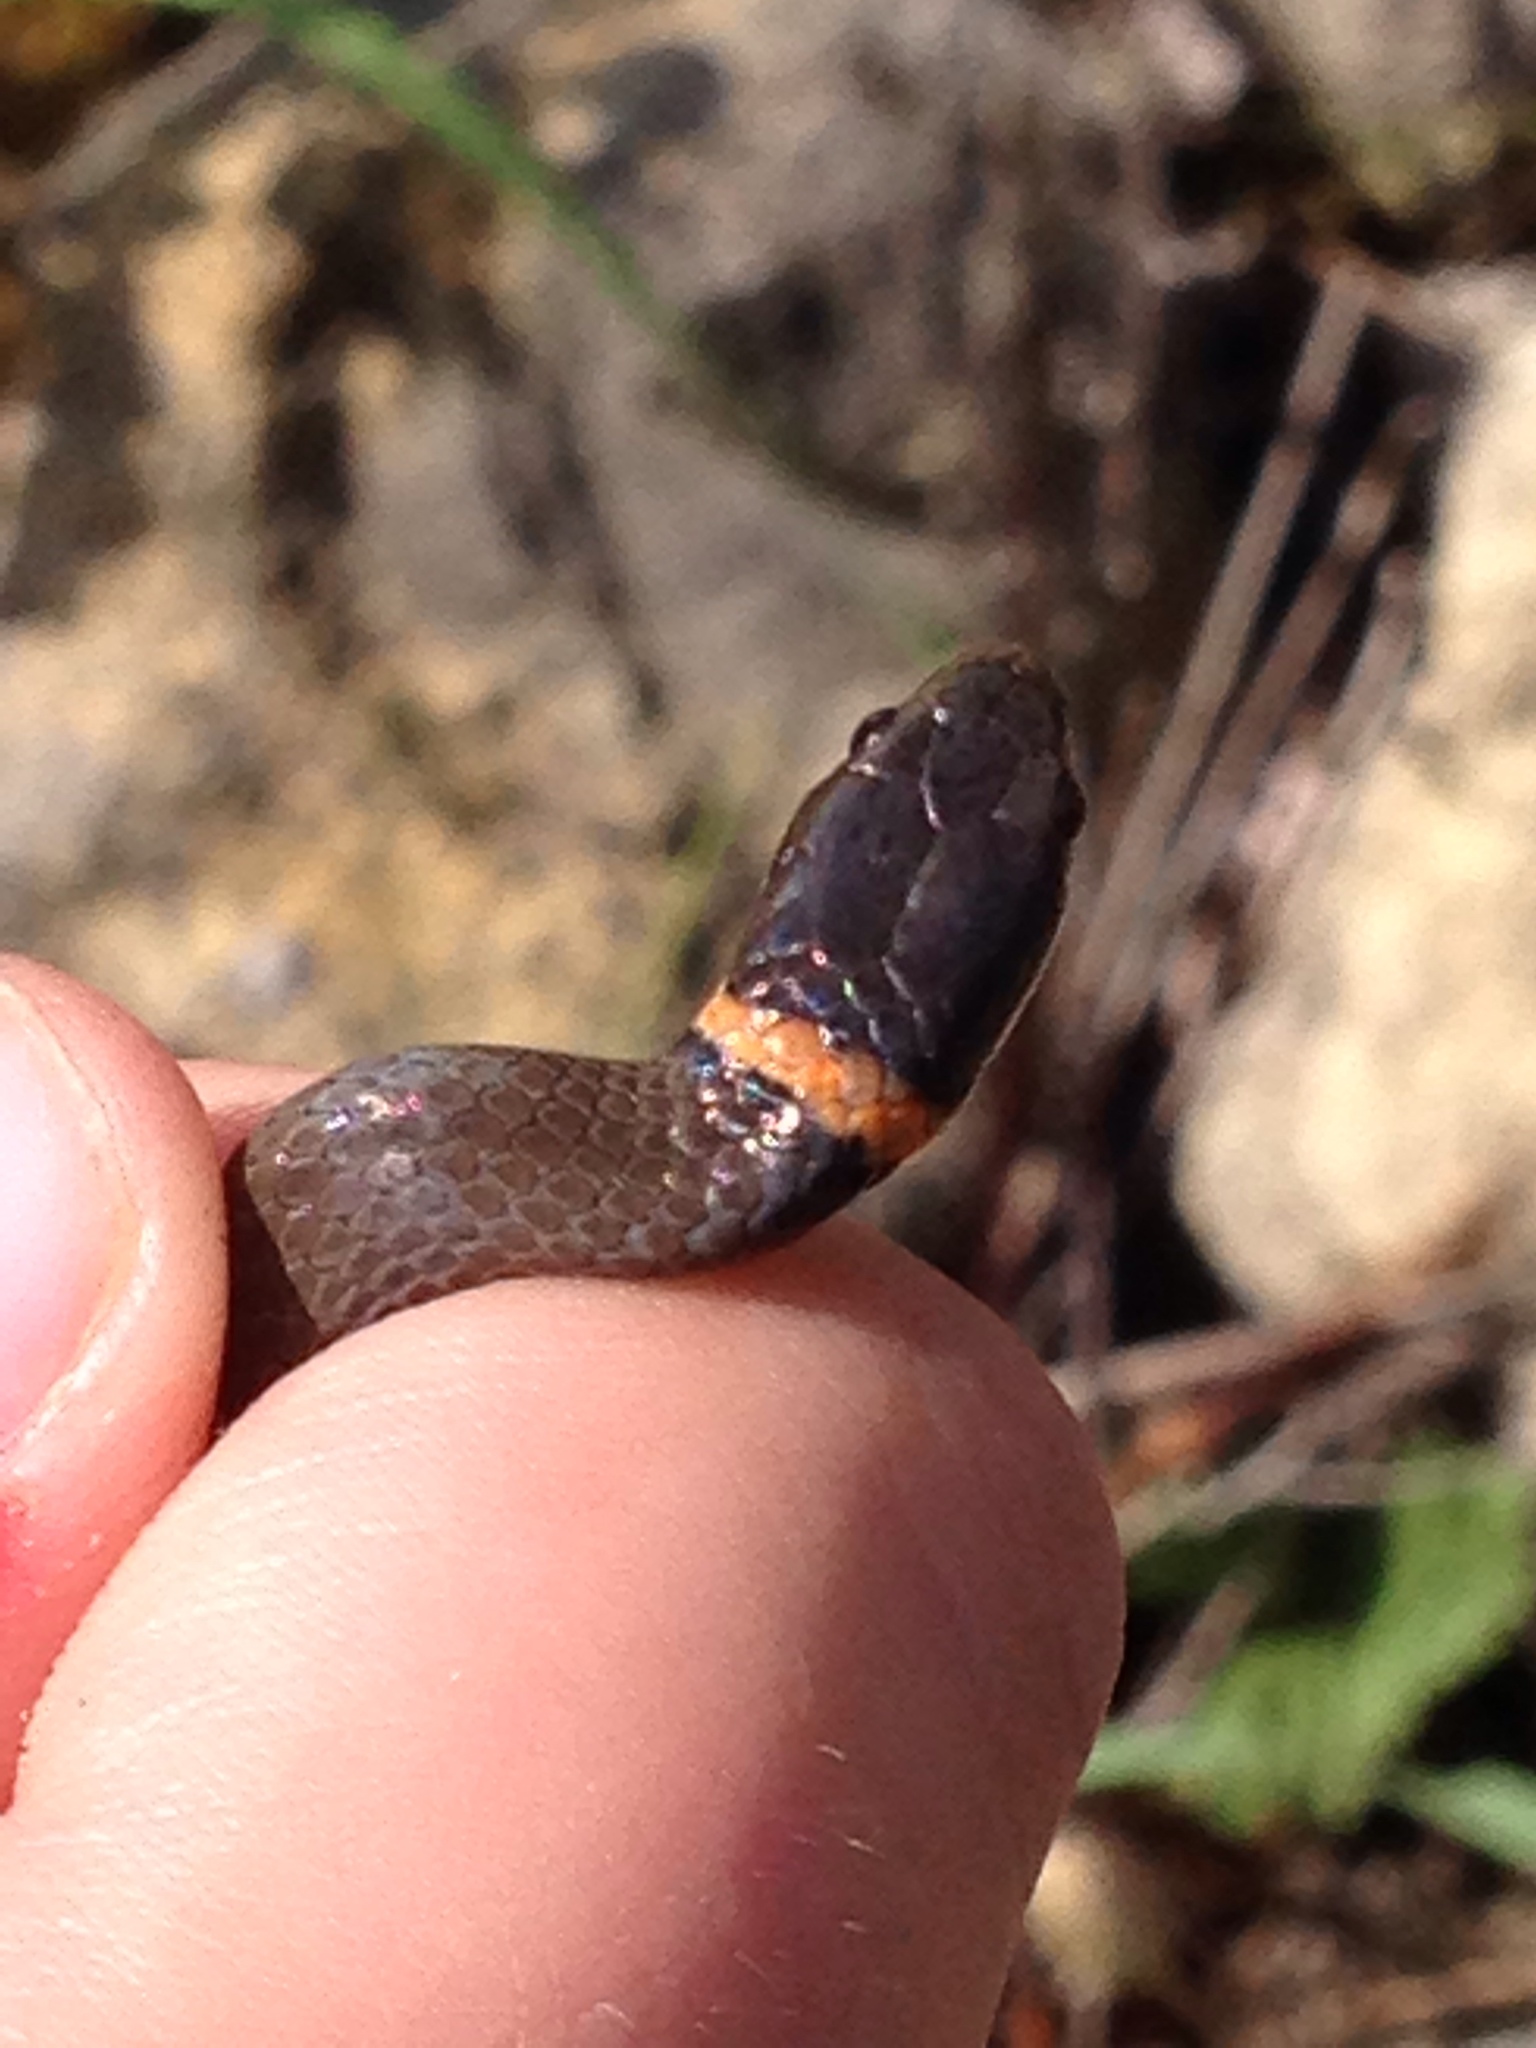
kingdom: Animalia
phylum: Chordata
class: Squamata
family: Colubridae
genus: Diadophis
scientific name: Diadophis punctatus
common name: Ringneck snake
